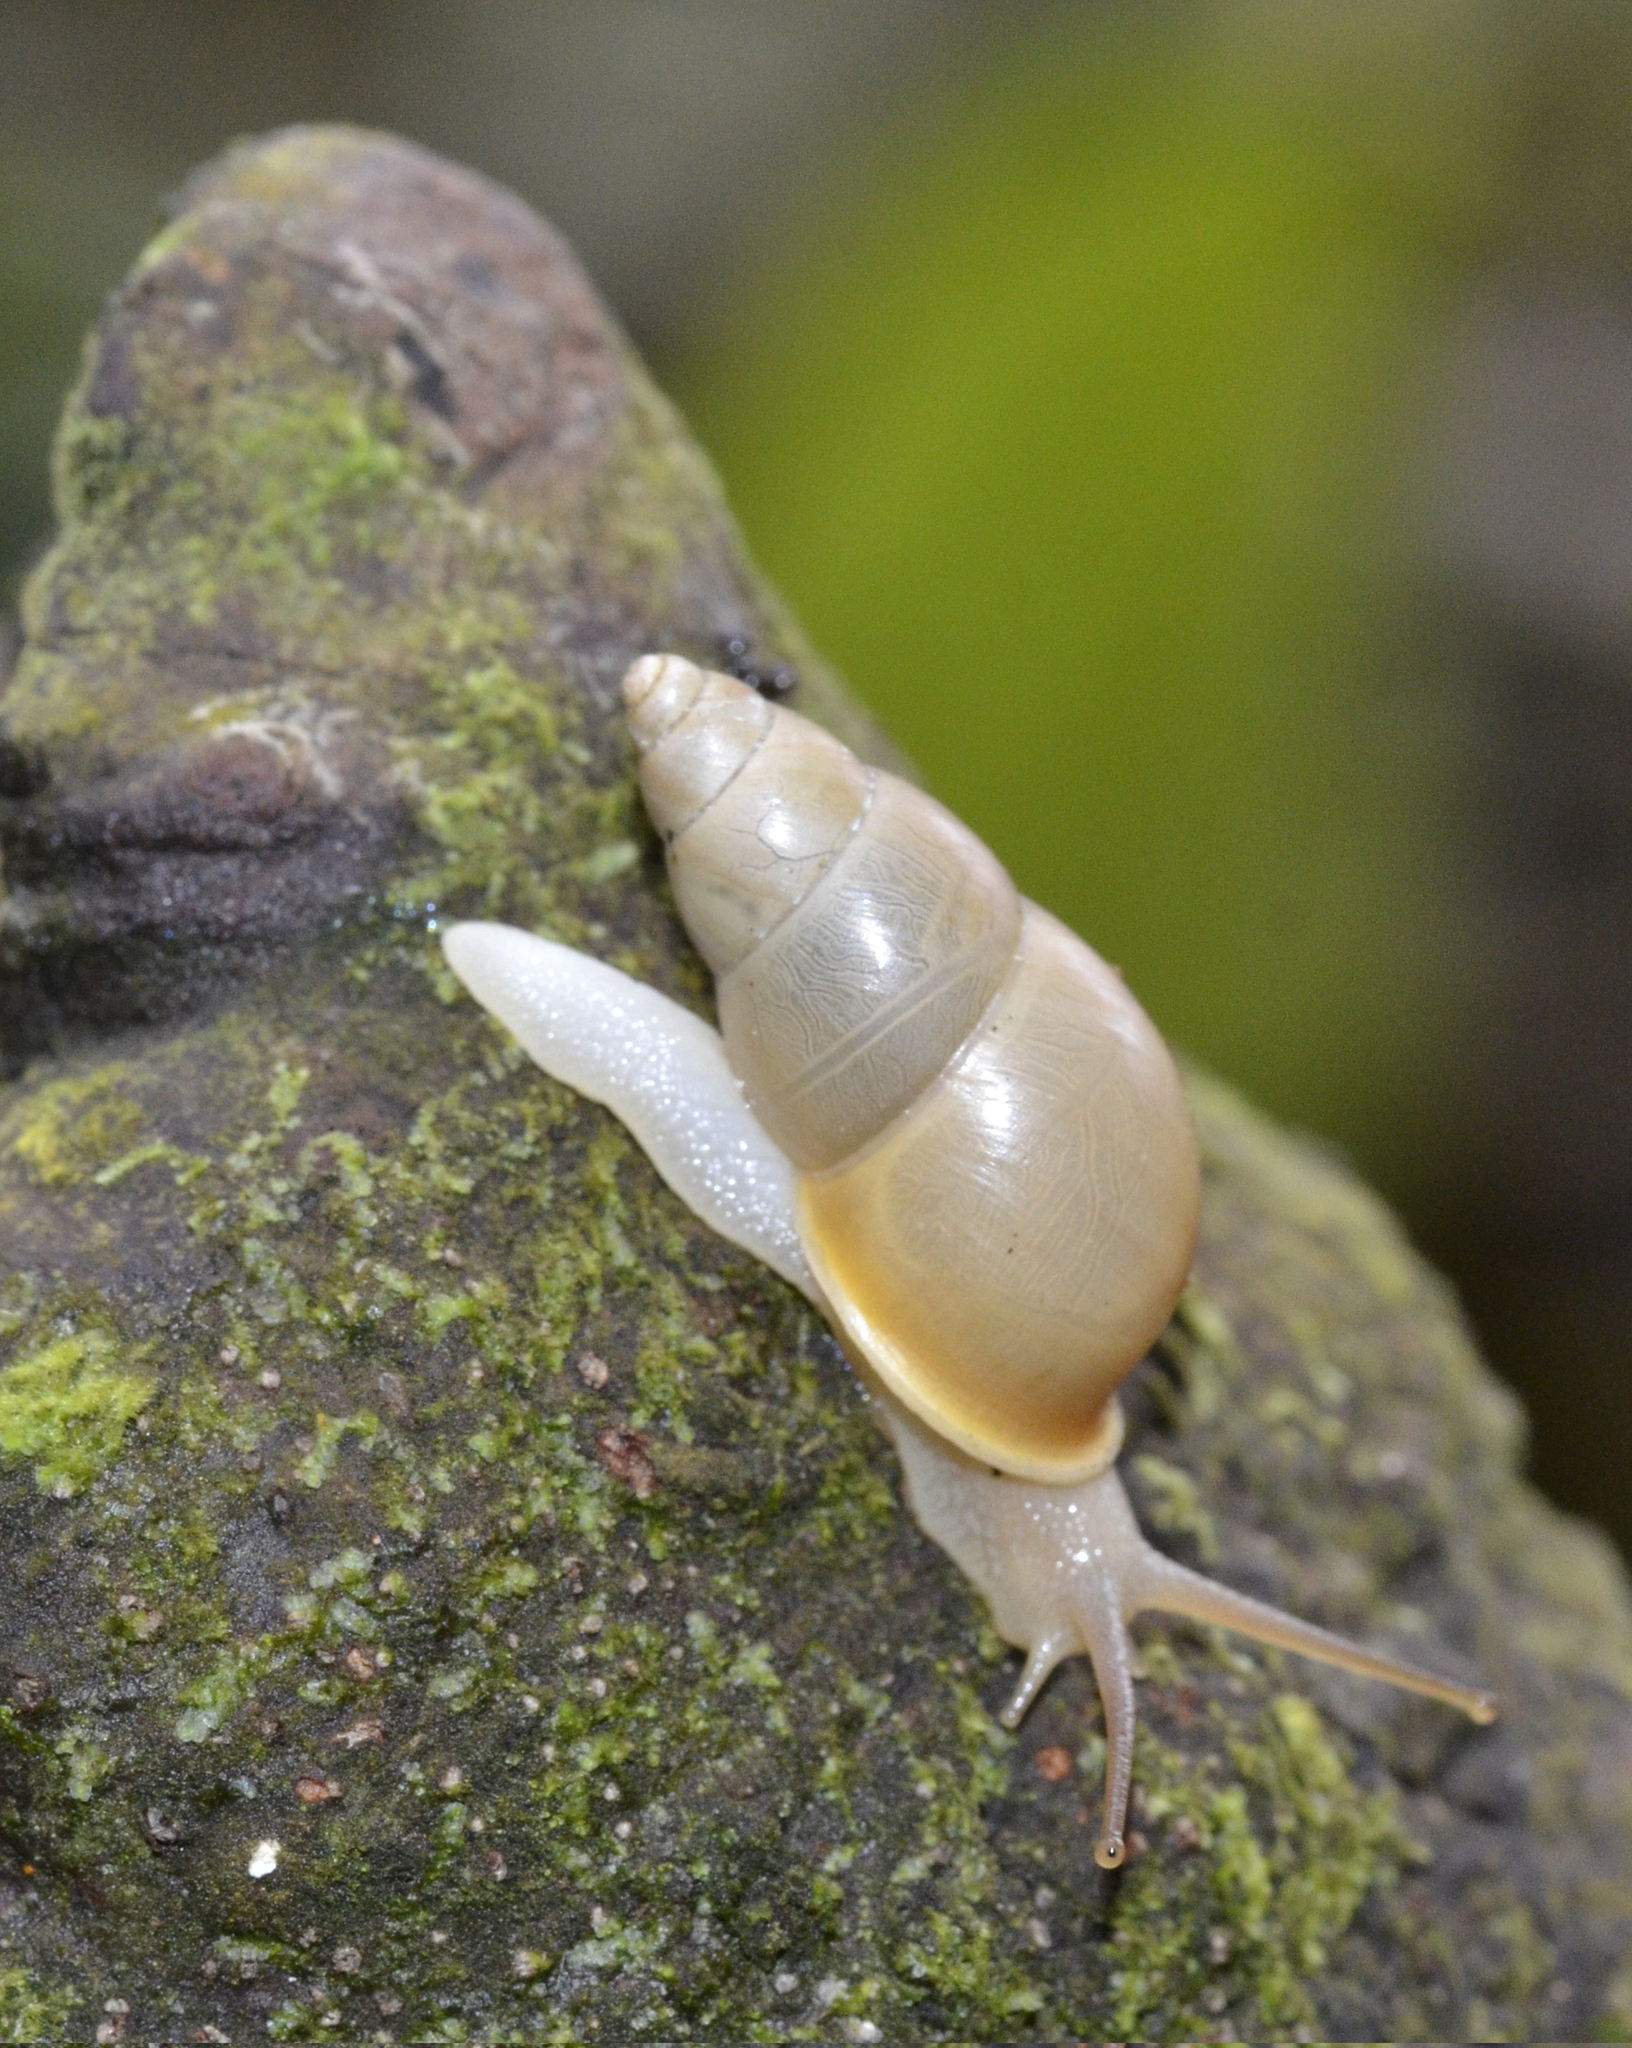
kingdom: Animalia
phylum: Mollusca
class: Gastropoda
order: Stylommatophora
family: Bulimulidae
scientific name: Bulimulidae
